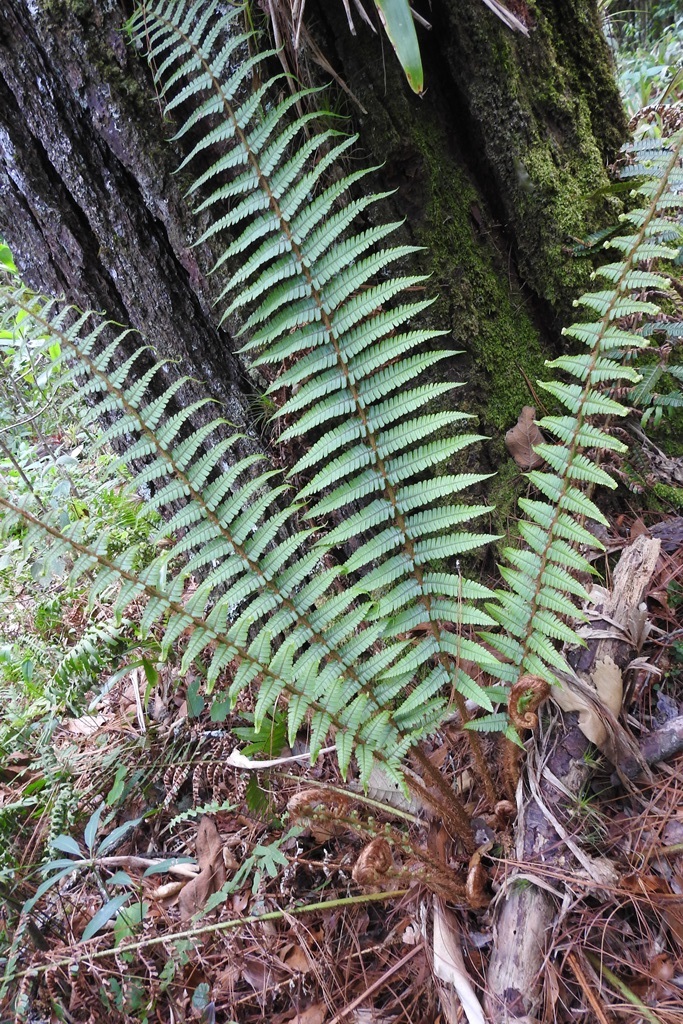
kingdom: Plantae
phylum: Tracheophyta
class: Polypodiopsida
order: Polypodiales
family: Dryopteridaceae
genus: Dryopteris
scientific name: Dryopteris wallichiana
